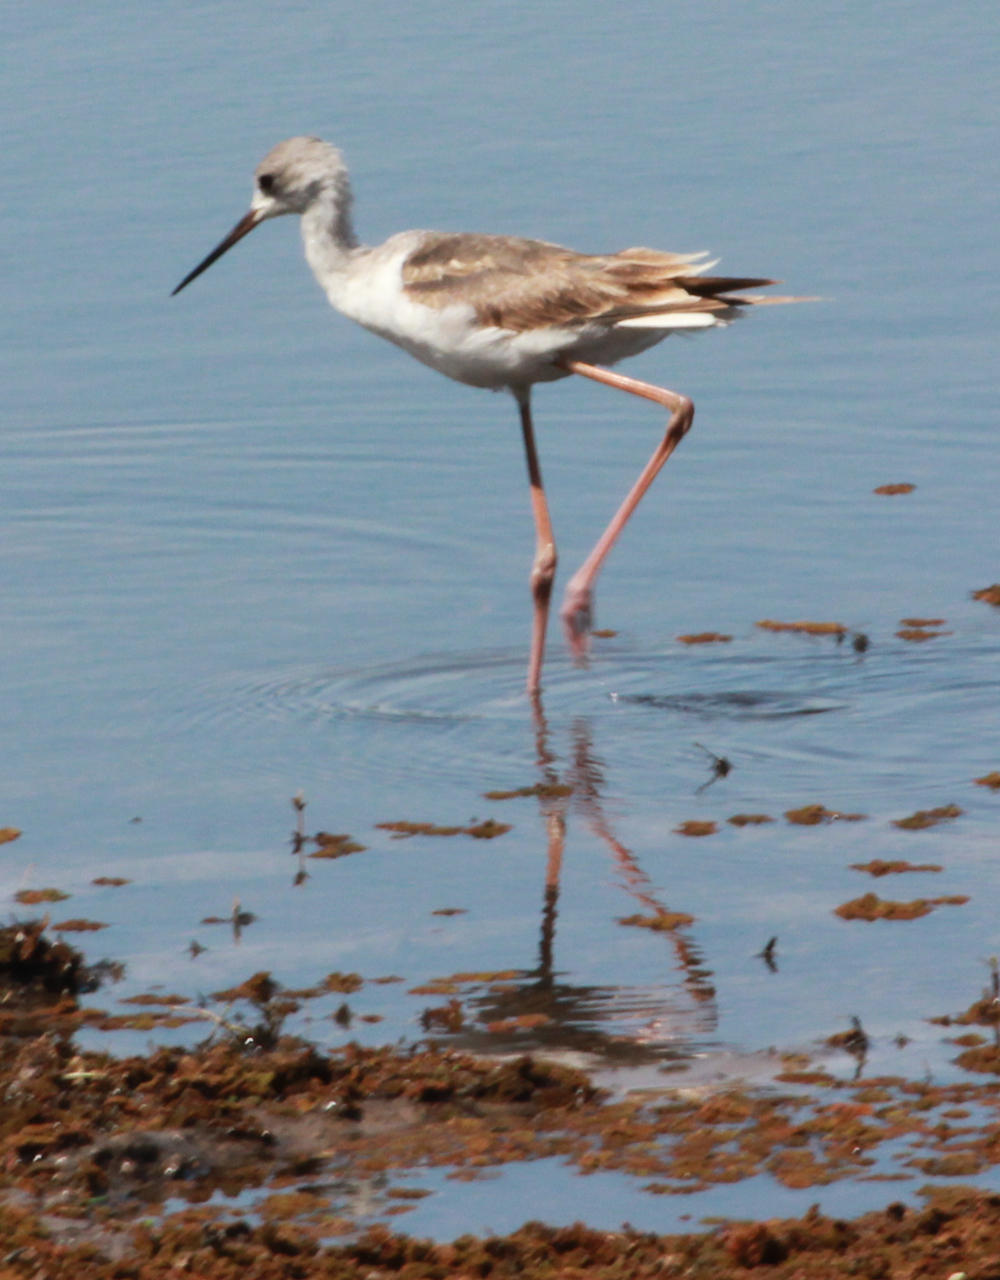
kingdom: Animalia
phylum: Chordata
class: Aves
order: Charadriiformes
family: Recurvirostridae
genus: Himantopus
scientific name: Himantopus himantopus
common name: Black-winged stilt
